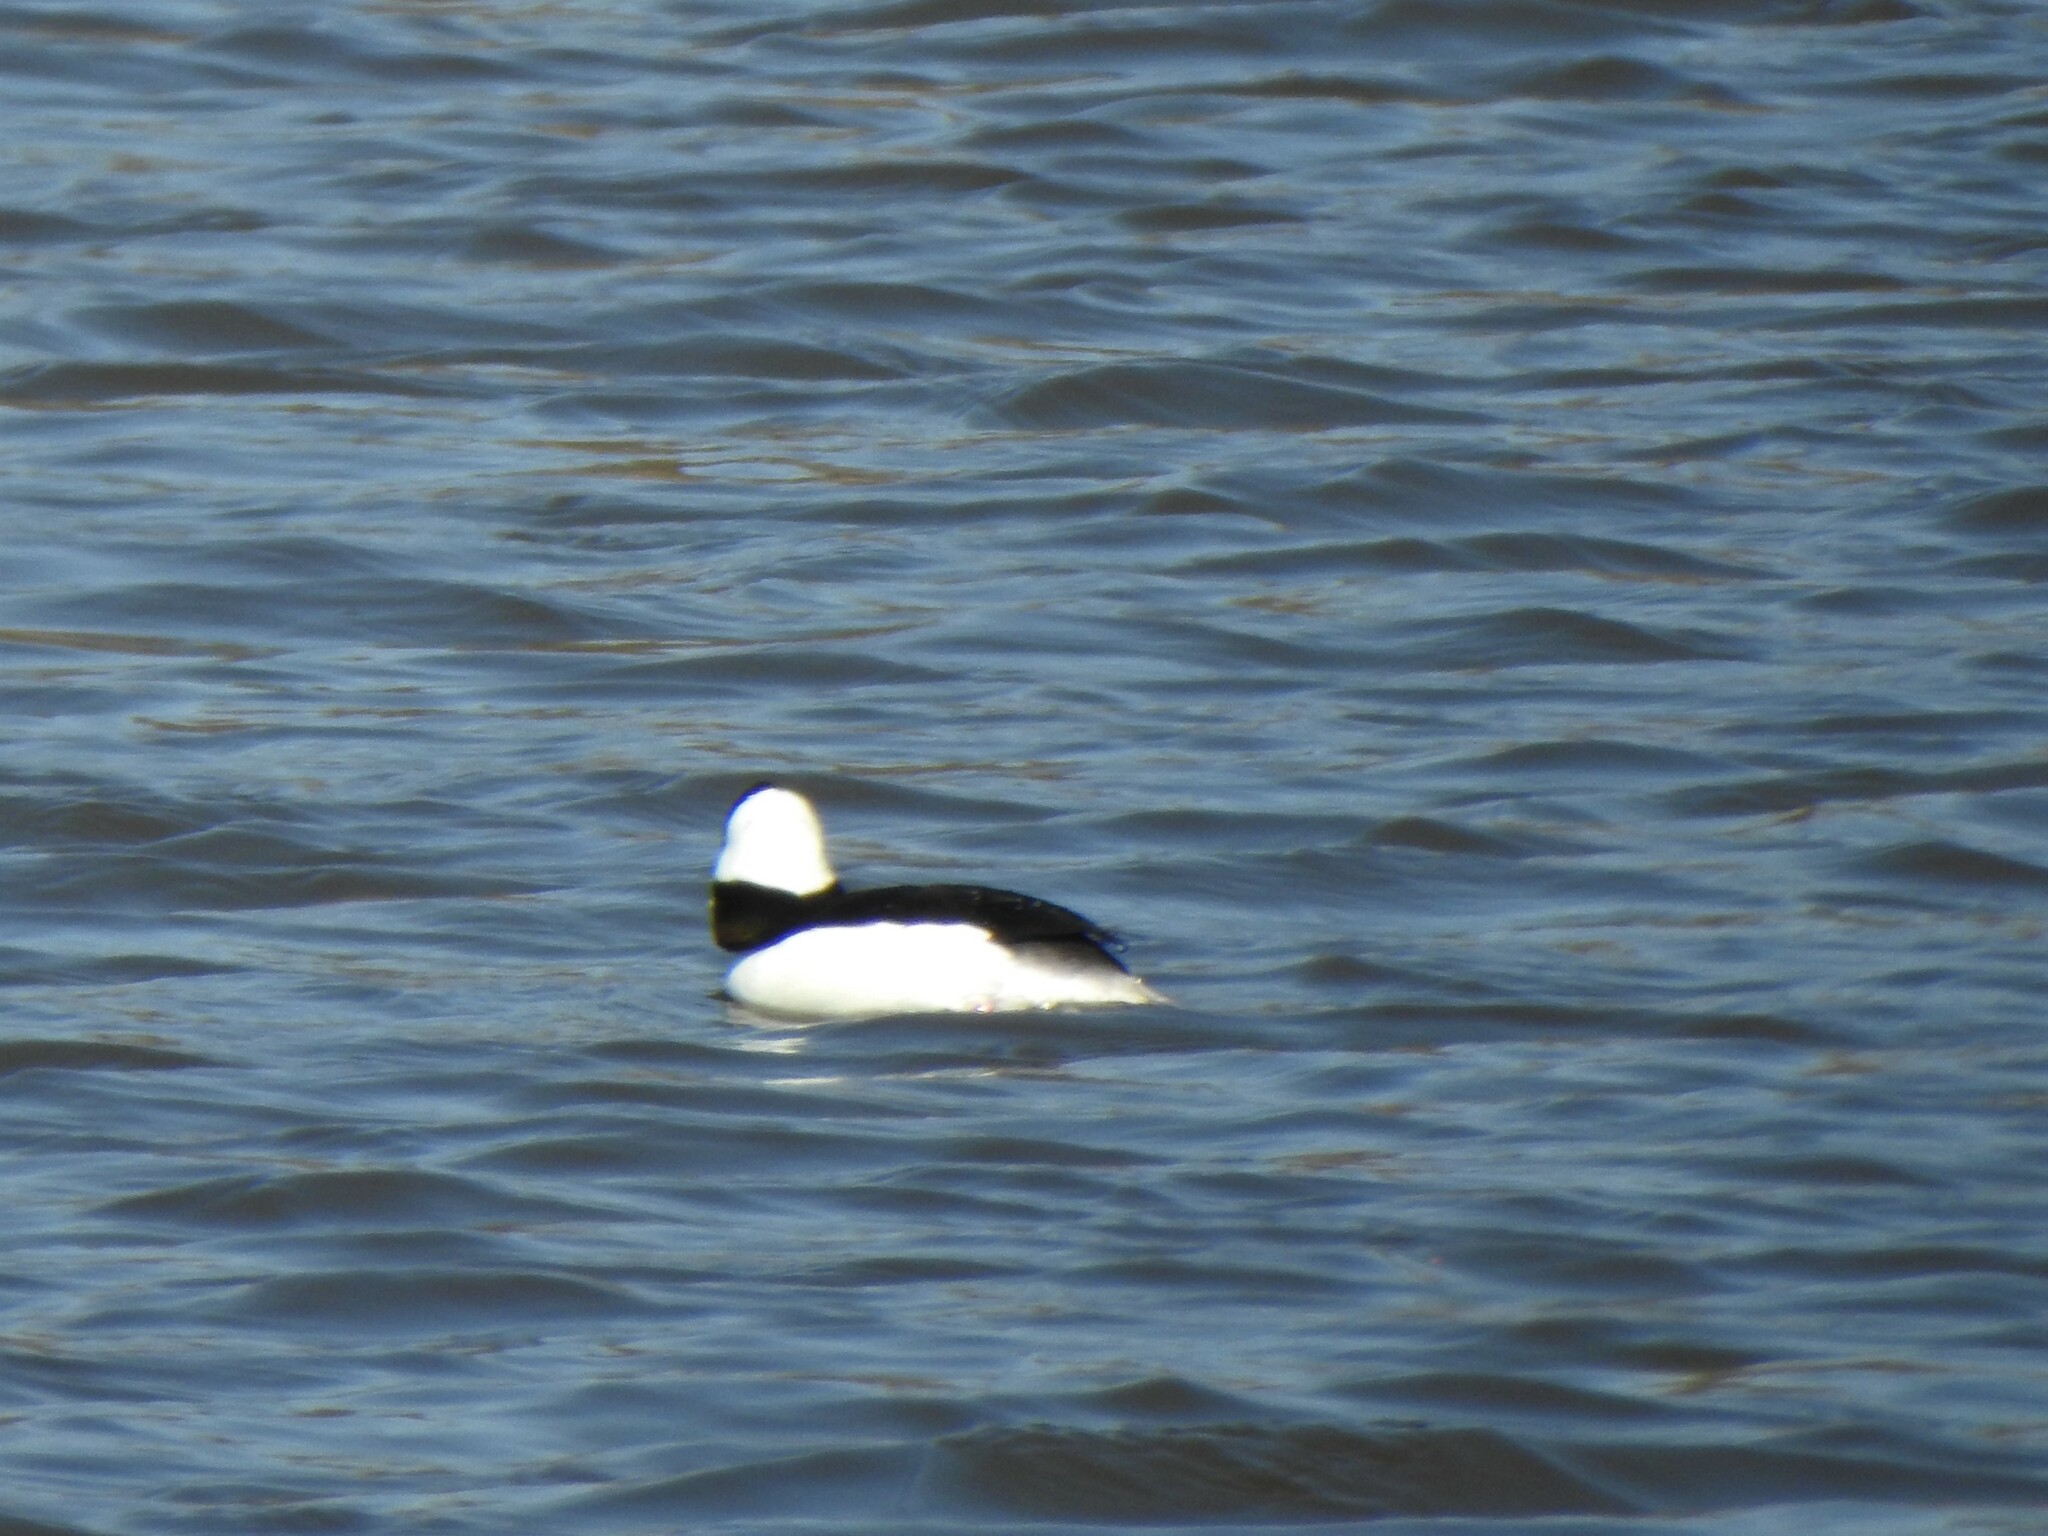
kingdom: Animalia
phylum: Chordata
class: Aves
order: Anseriformes
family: Anatidae
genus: Bucephala
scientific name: Bucephala albeola
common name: Bufflehead
